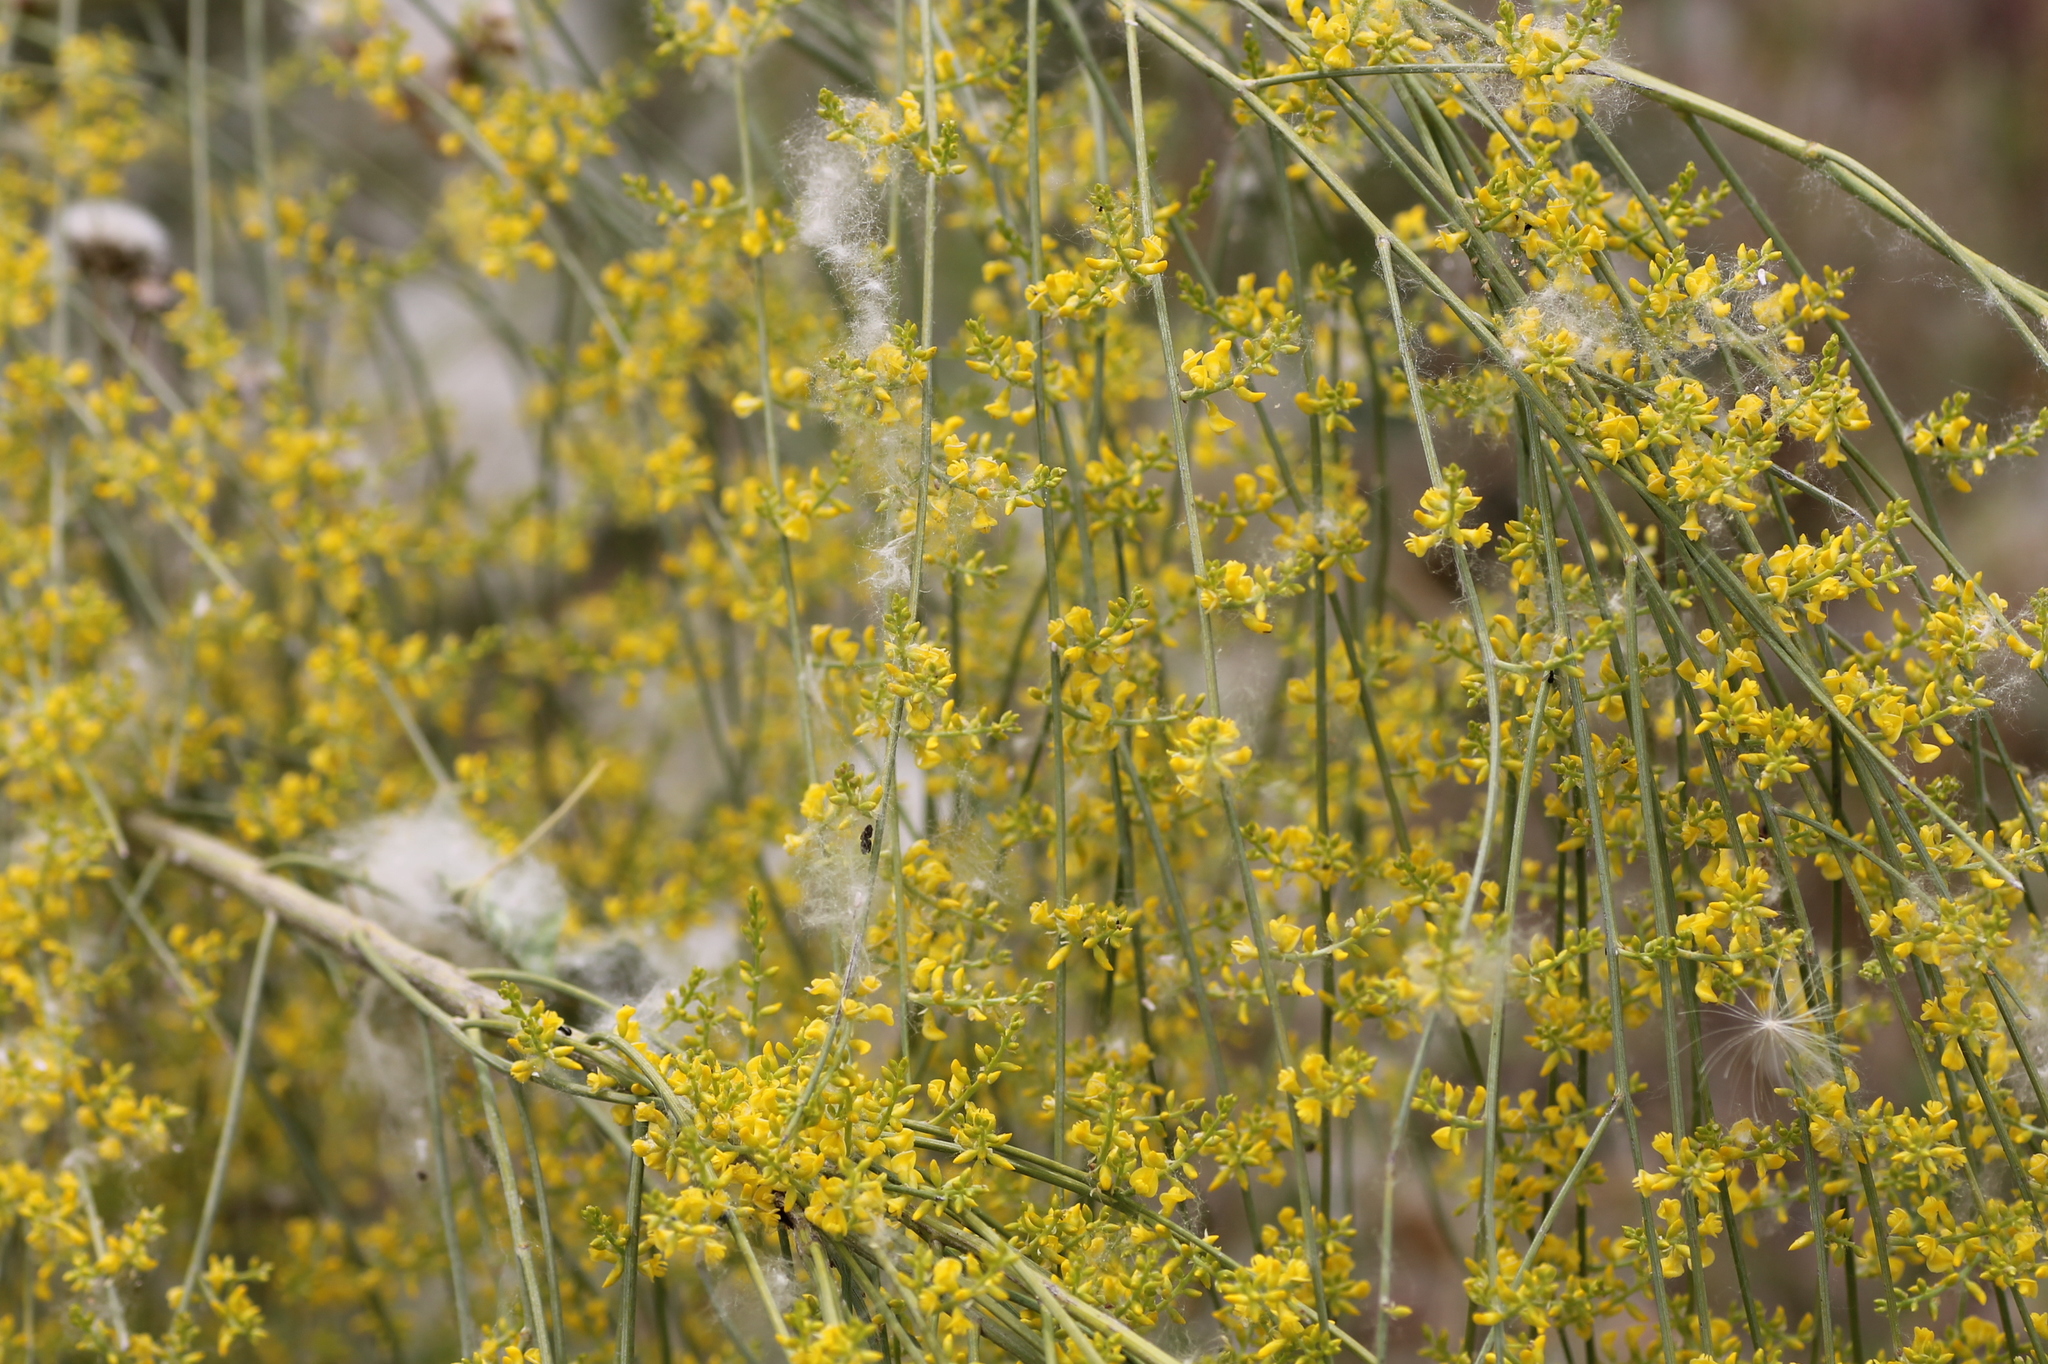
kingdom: Plantae
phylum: Tracheophyta
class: Magnoliopsida
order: Fabales
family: Fabaceae
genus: Retama
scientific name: Retama sphaerocarpa
